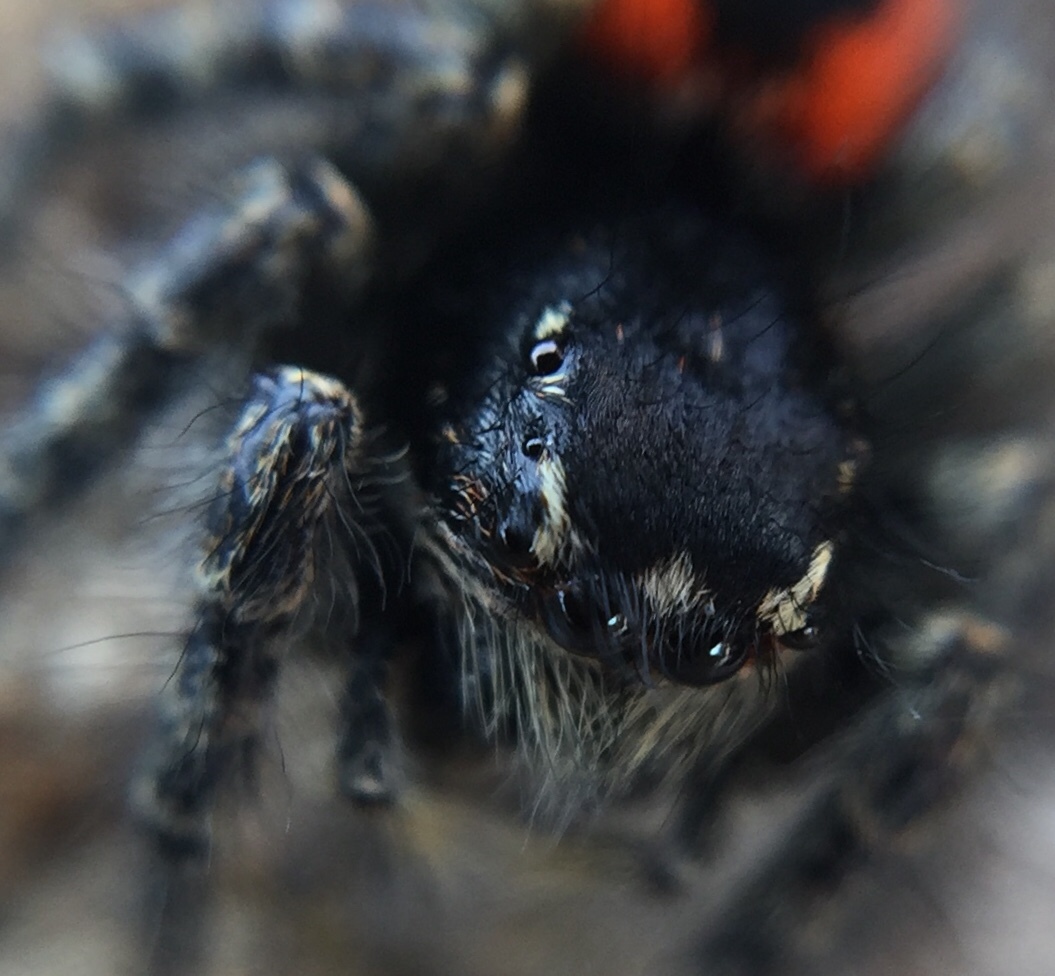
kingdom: Animalia
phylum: Arthropoda
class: Arachnida
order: Araneae
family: Salticidae
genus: Philaeus
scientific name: Philaeus chrysops
